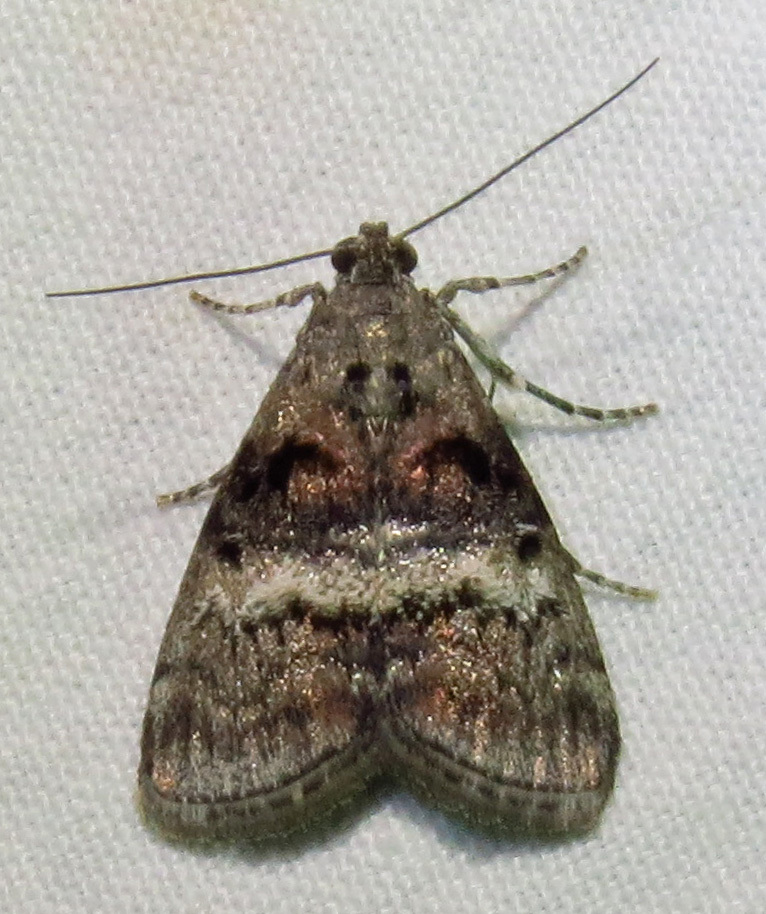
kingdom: Animalia
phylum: Arthropoda
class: Insecta
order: Lepidoptera
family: Pyralidae
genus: Pococera
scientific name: Pococera asperatella
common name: Maple webworm moth
